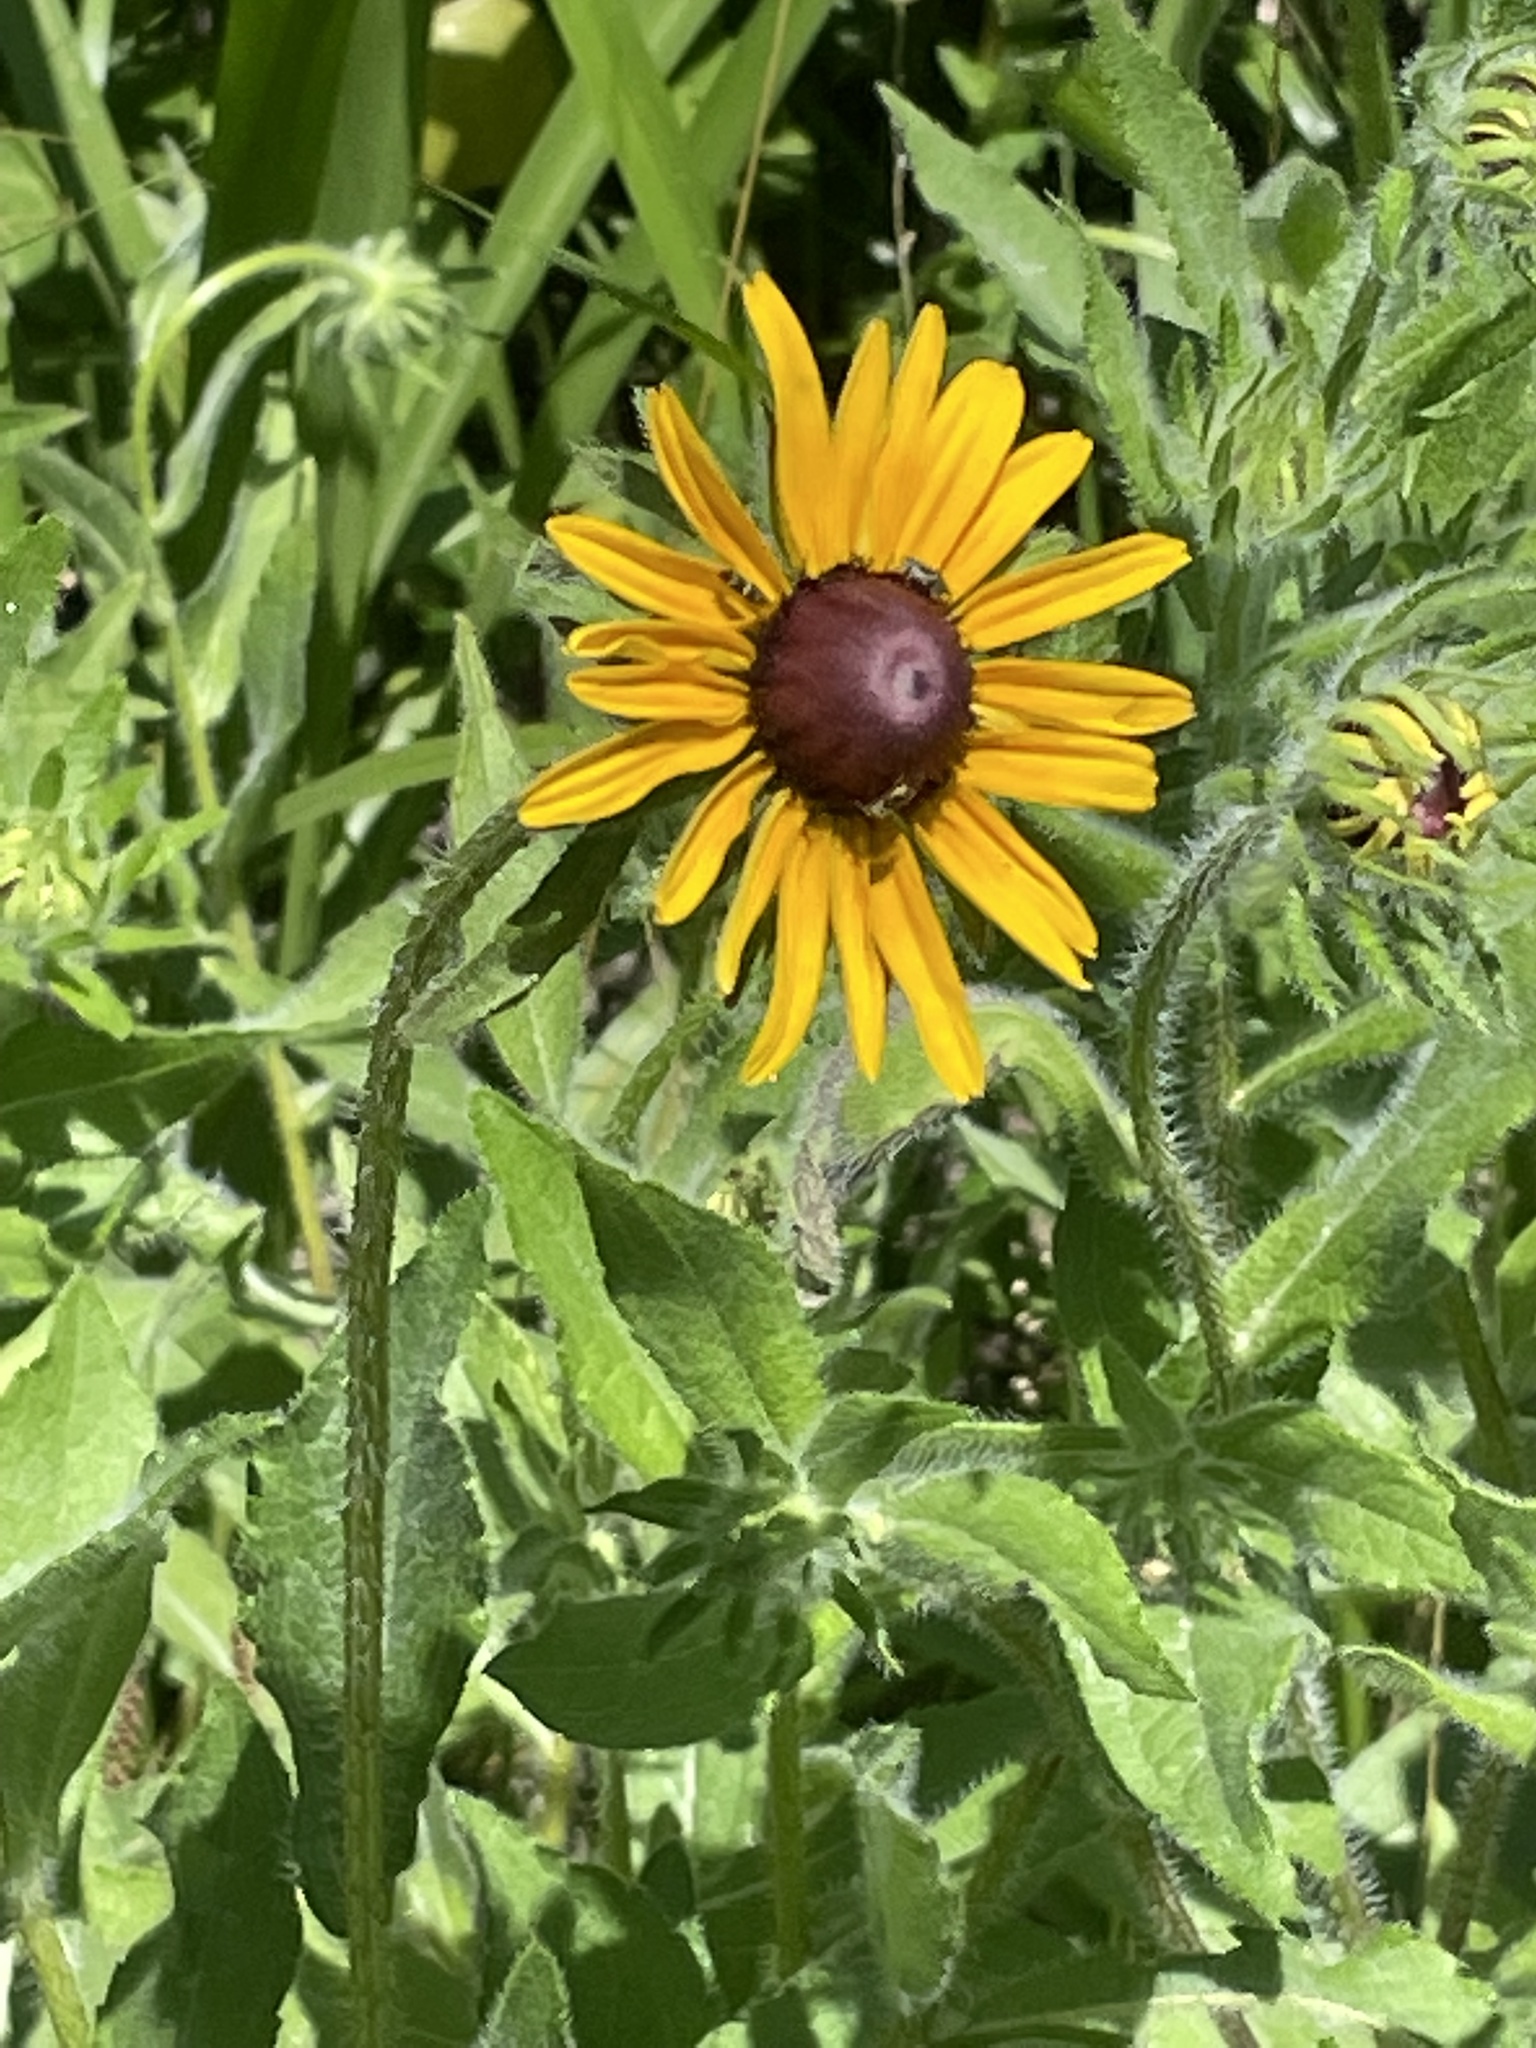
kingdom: Plantae
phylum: Tracheophyta
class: Magnoliopsida
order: Asterales
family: Asteraceae
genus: Rudbeckia
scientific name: Rudbeckia hirta
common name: Black-eyed-susan
